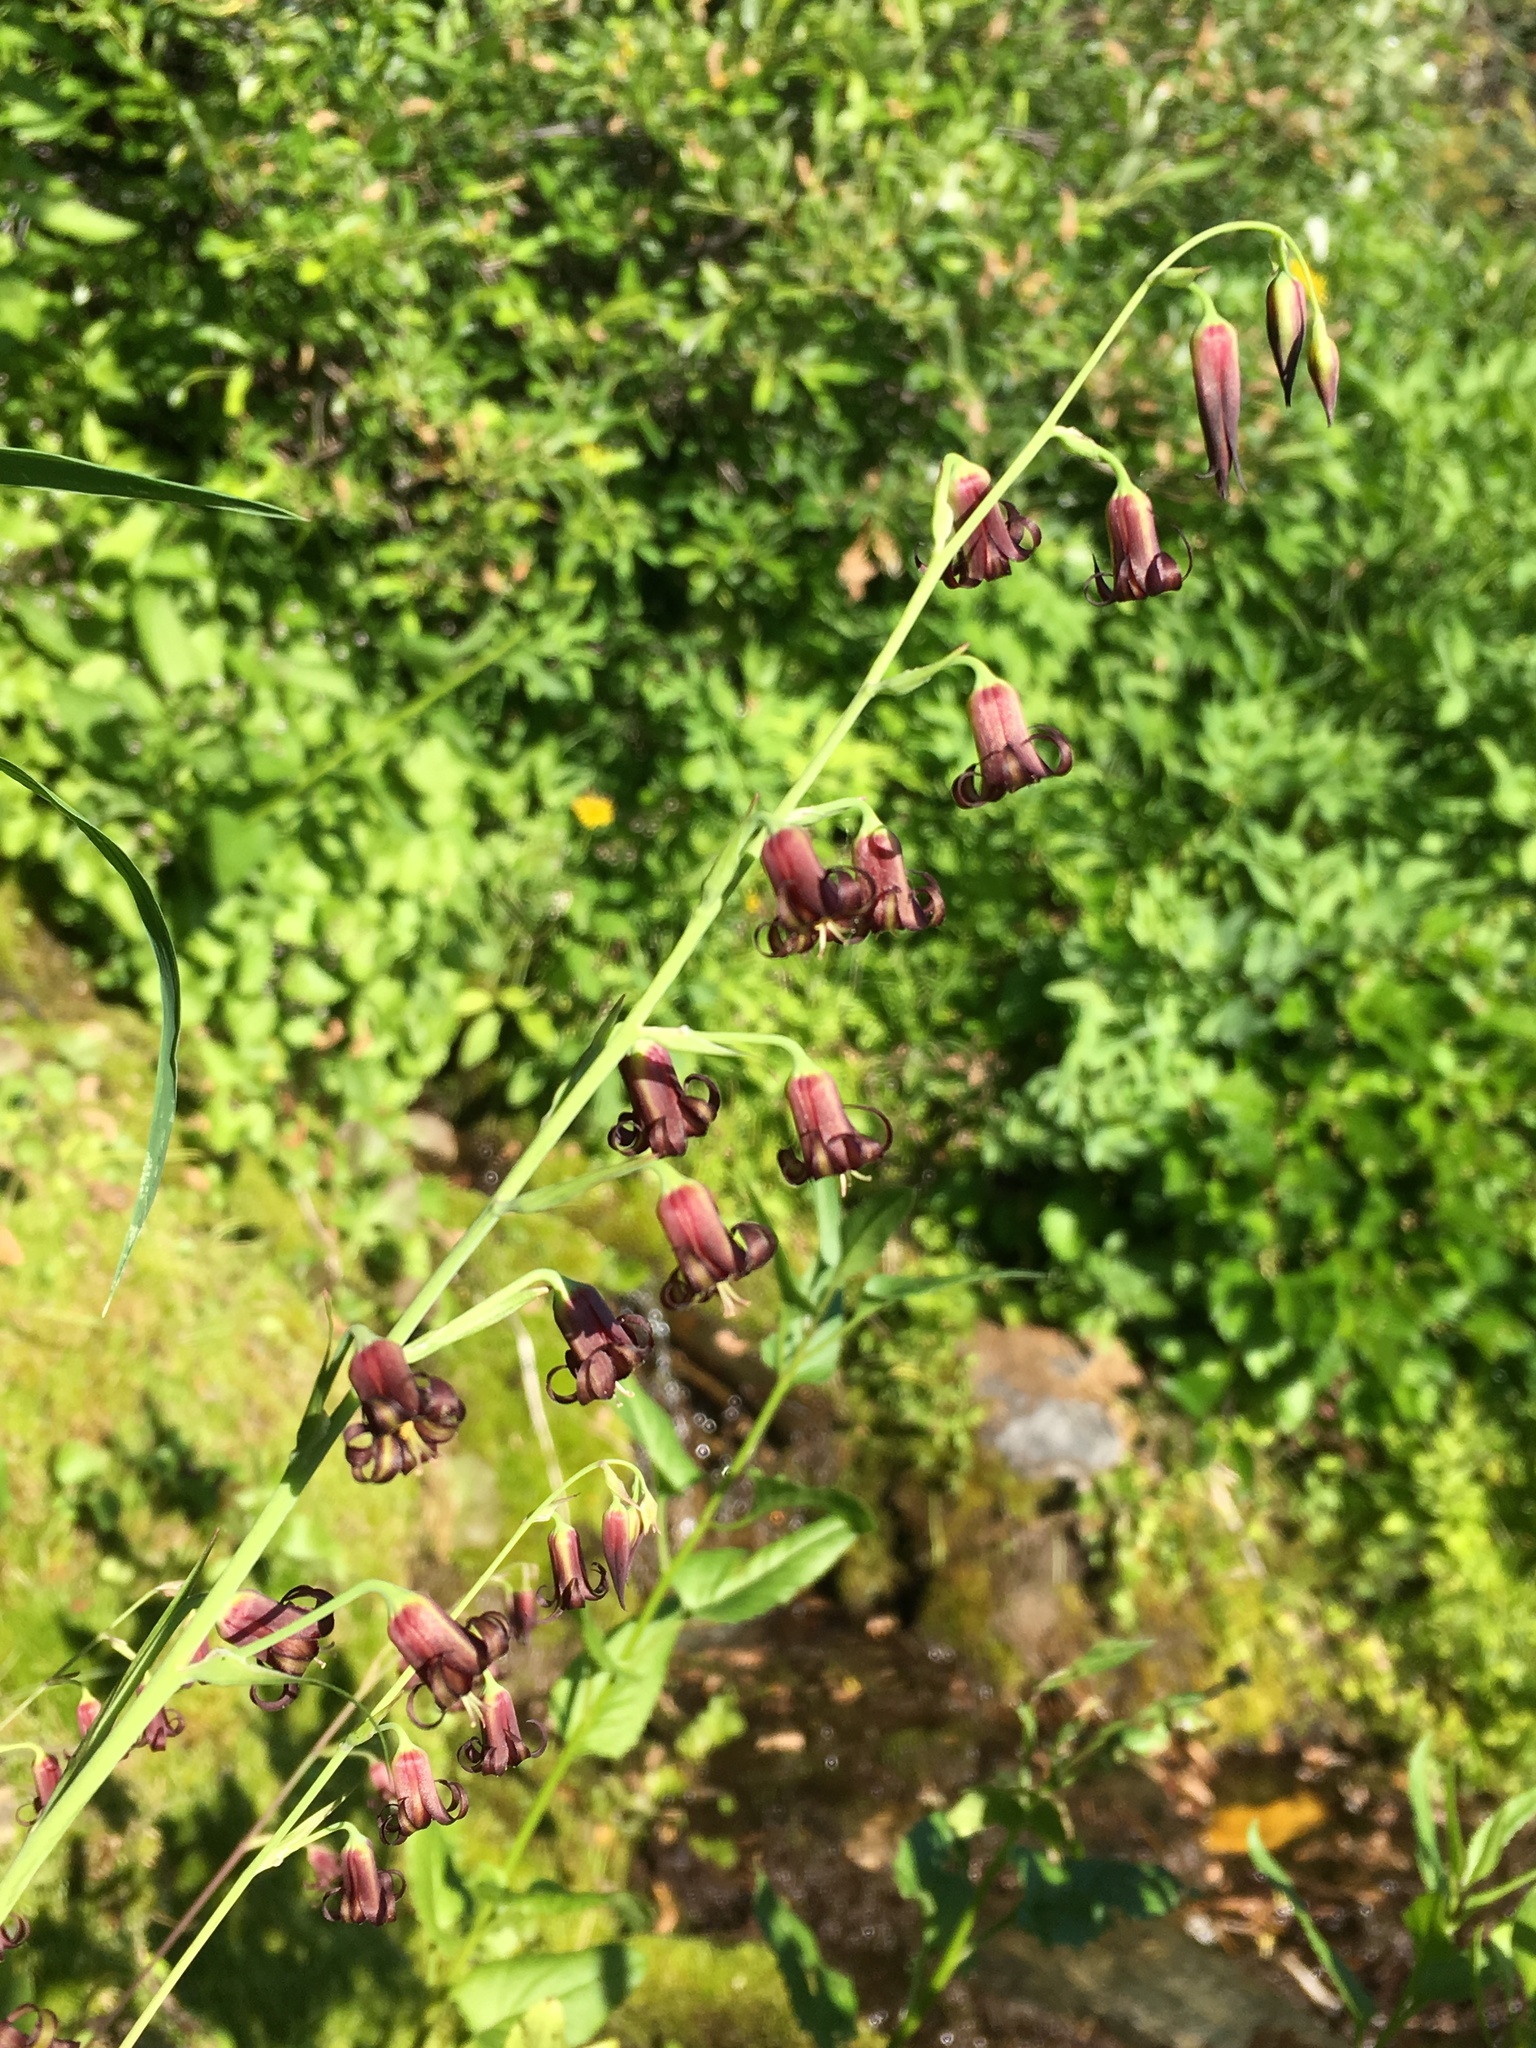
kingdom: Plantae
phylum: Tracheophyta
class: Liliopsida
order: Liliales
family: Melanthiaceae
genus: Anticlea
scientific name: Anticlea occidentalis
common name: Bronze-bells
